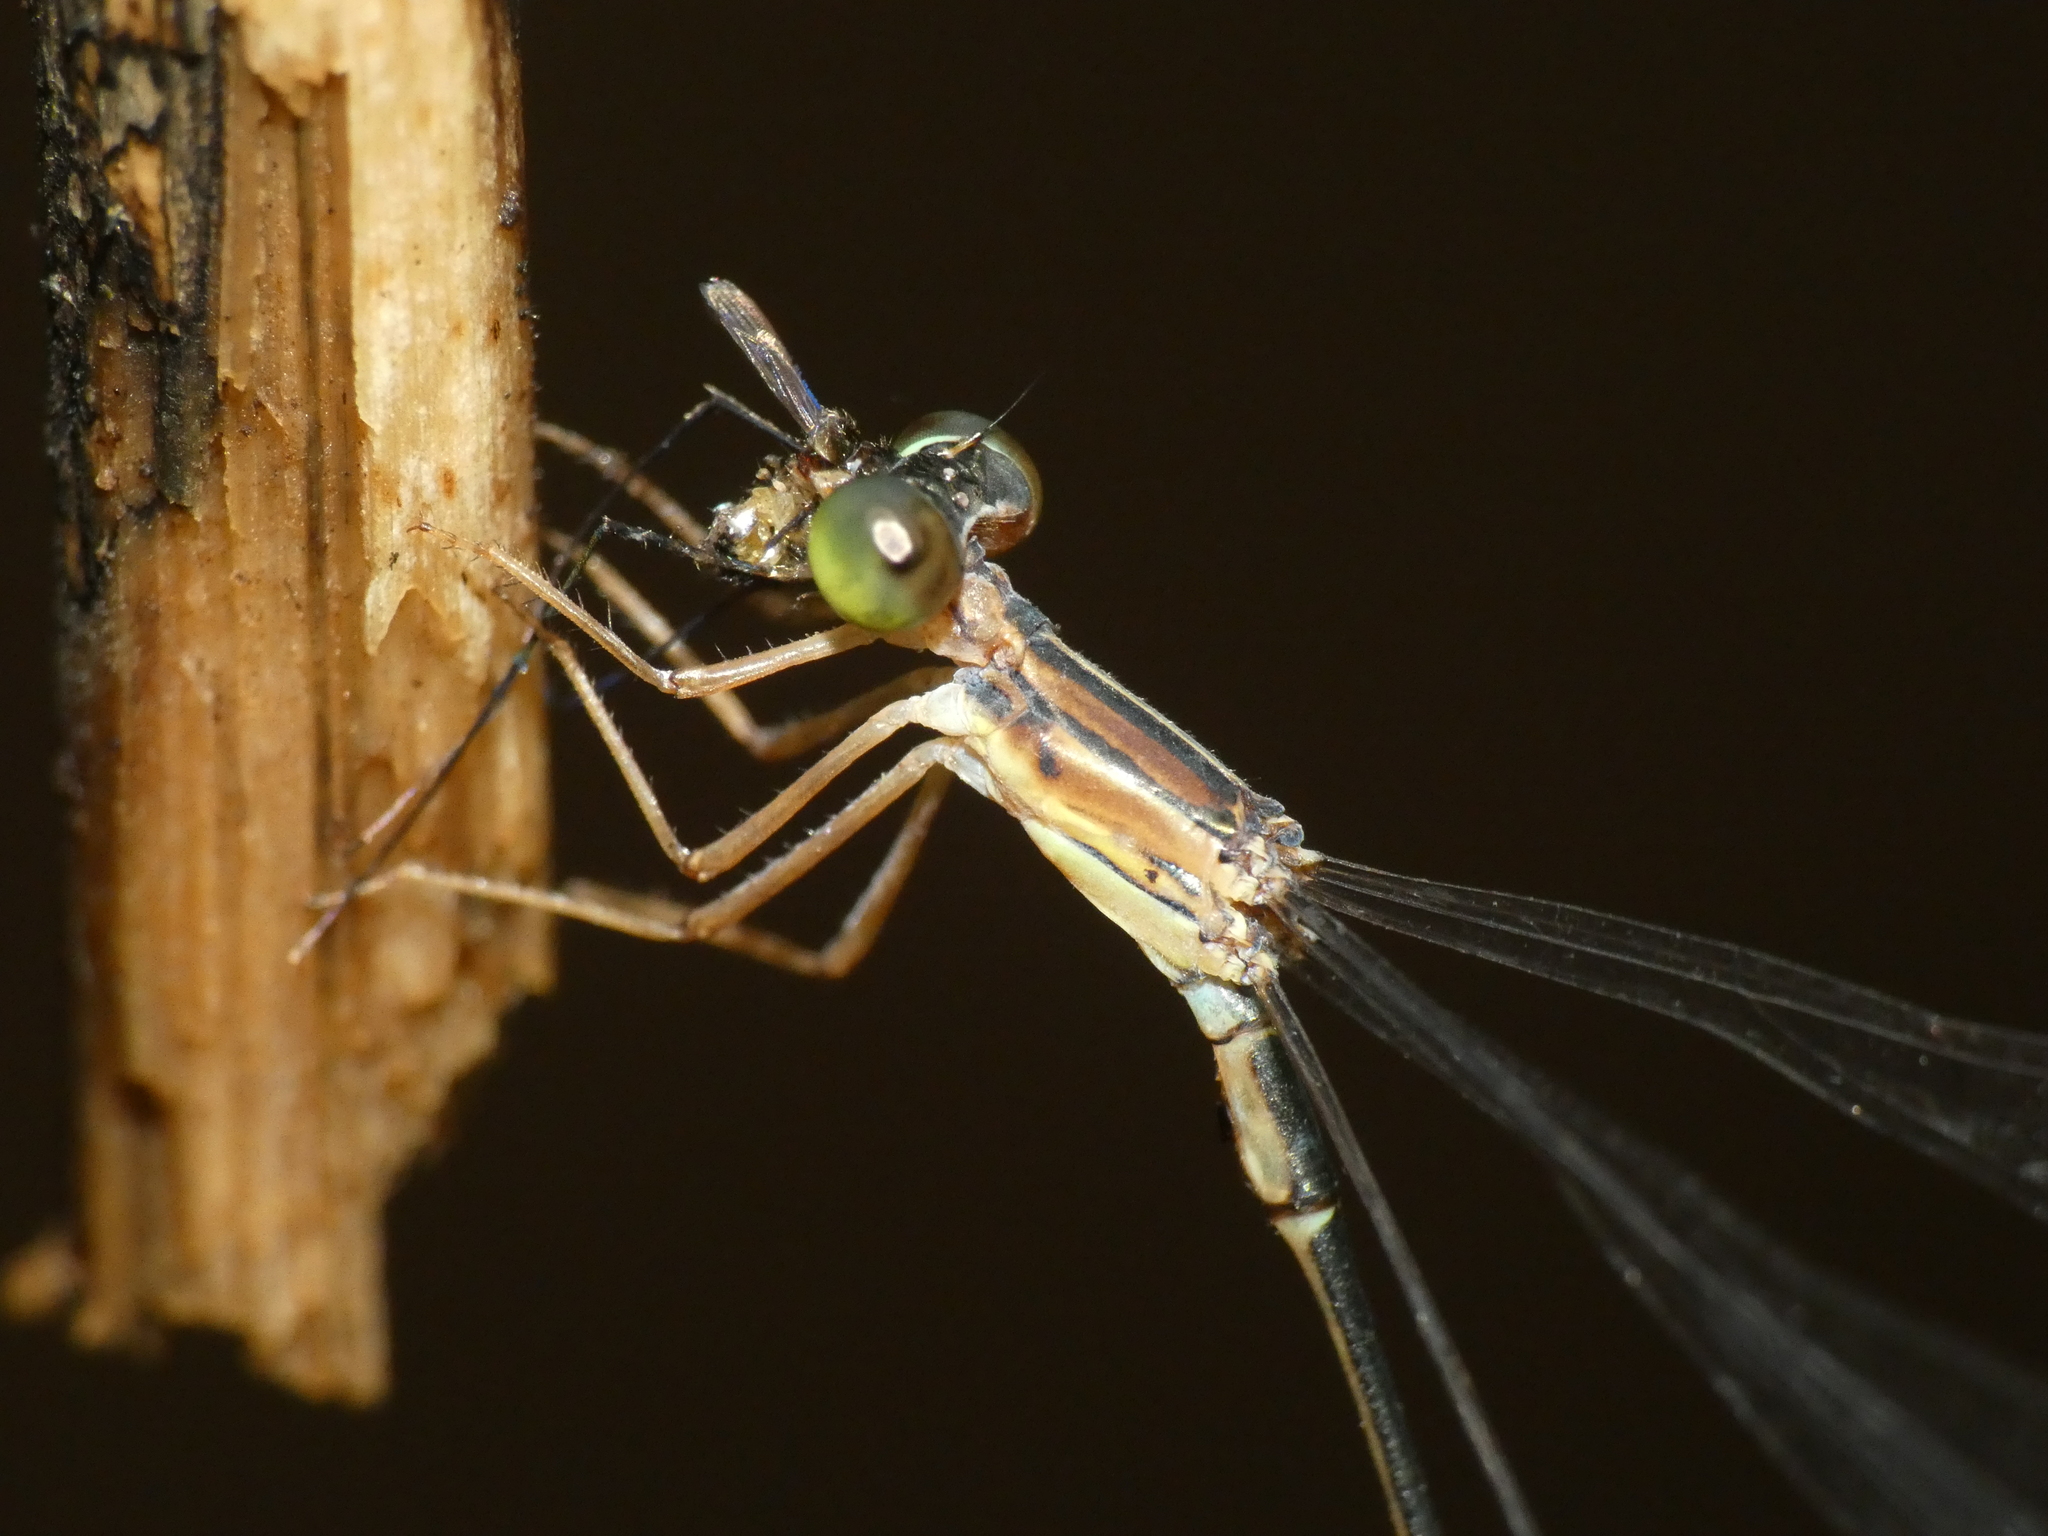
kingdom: Animalia
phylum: Arthropoda
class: Insecta
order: Odonata
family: Isostictidae
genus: Oristicta
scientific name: Oristicta filicicola
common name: Slender wiretail
